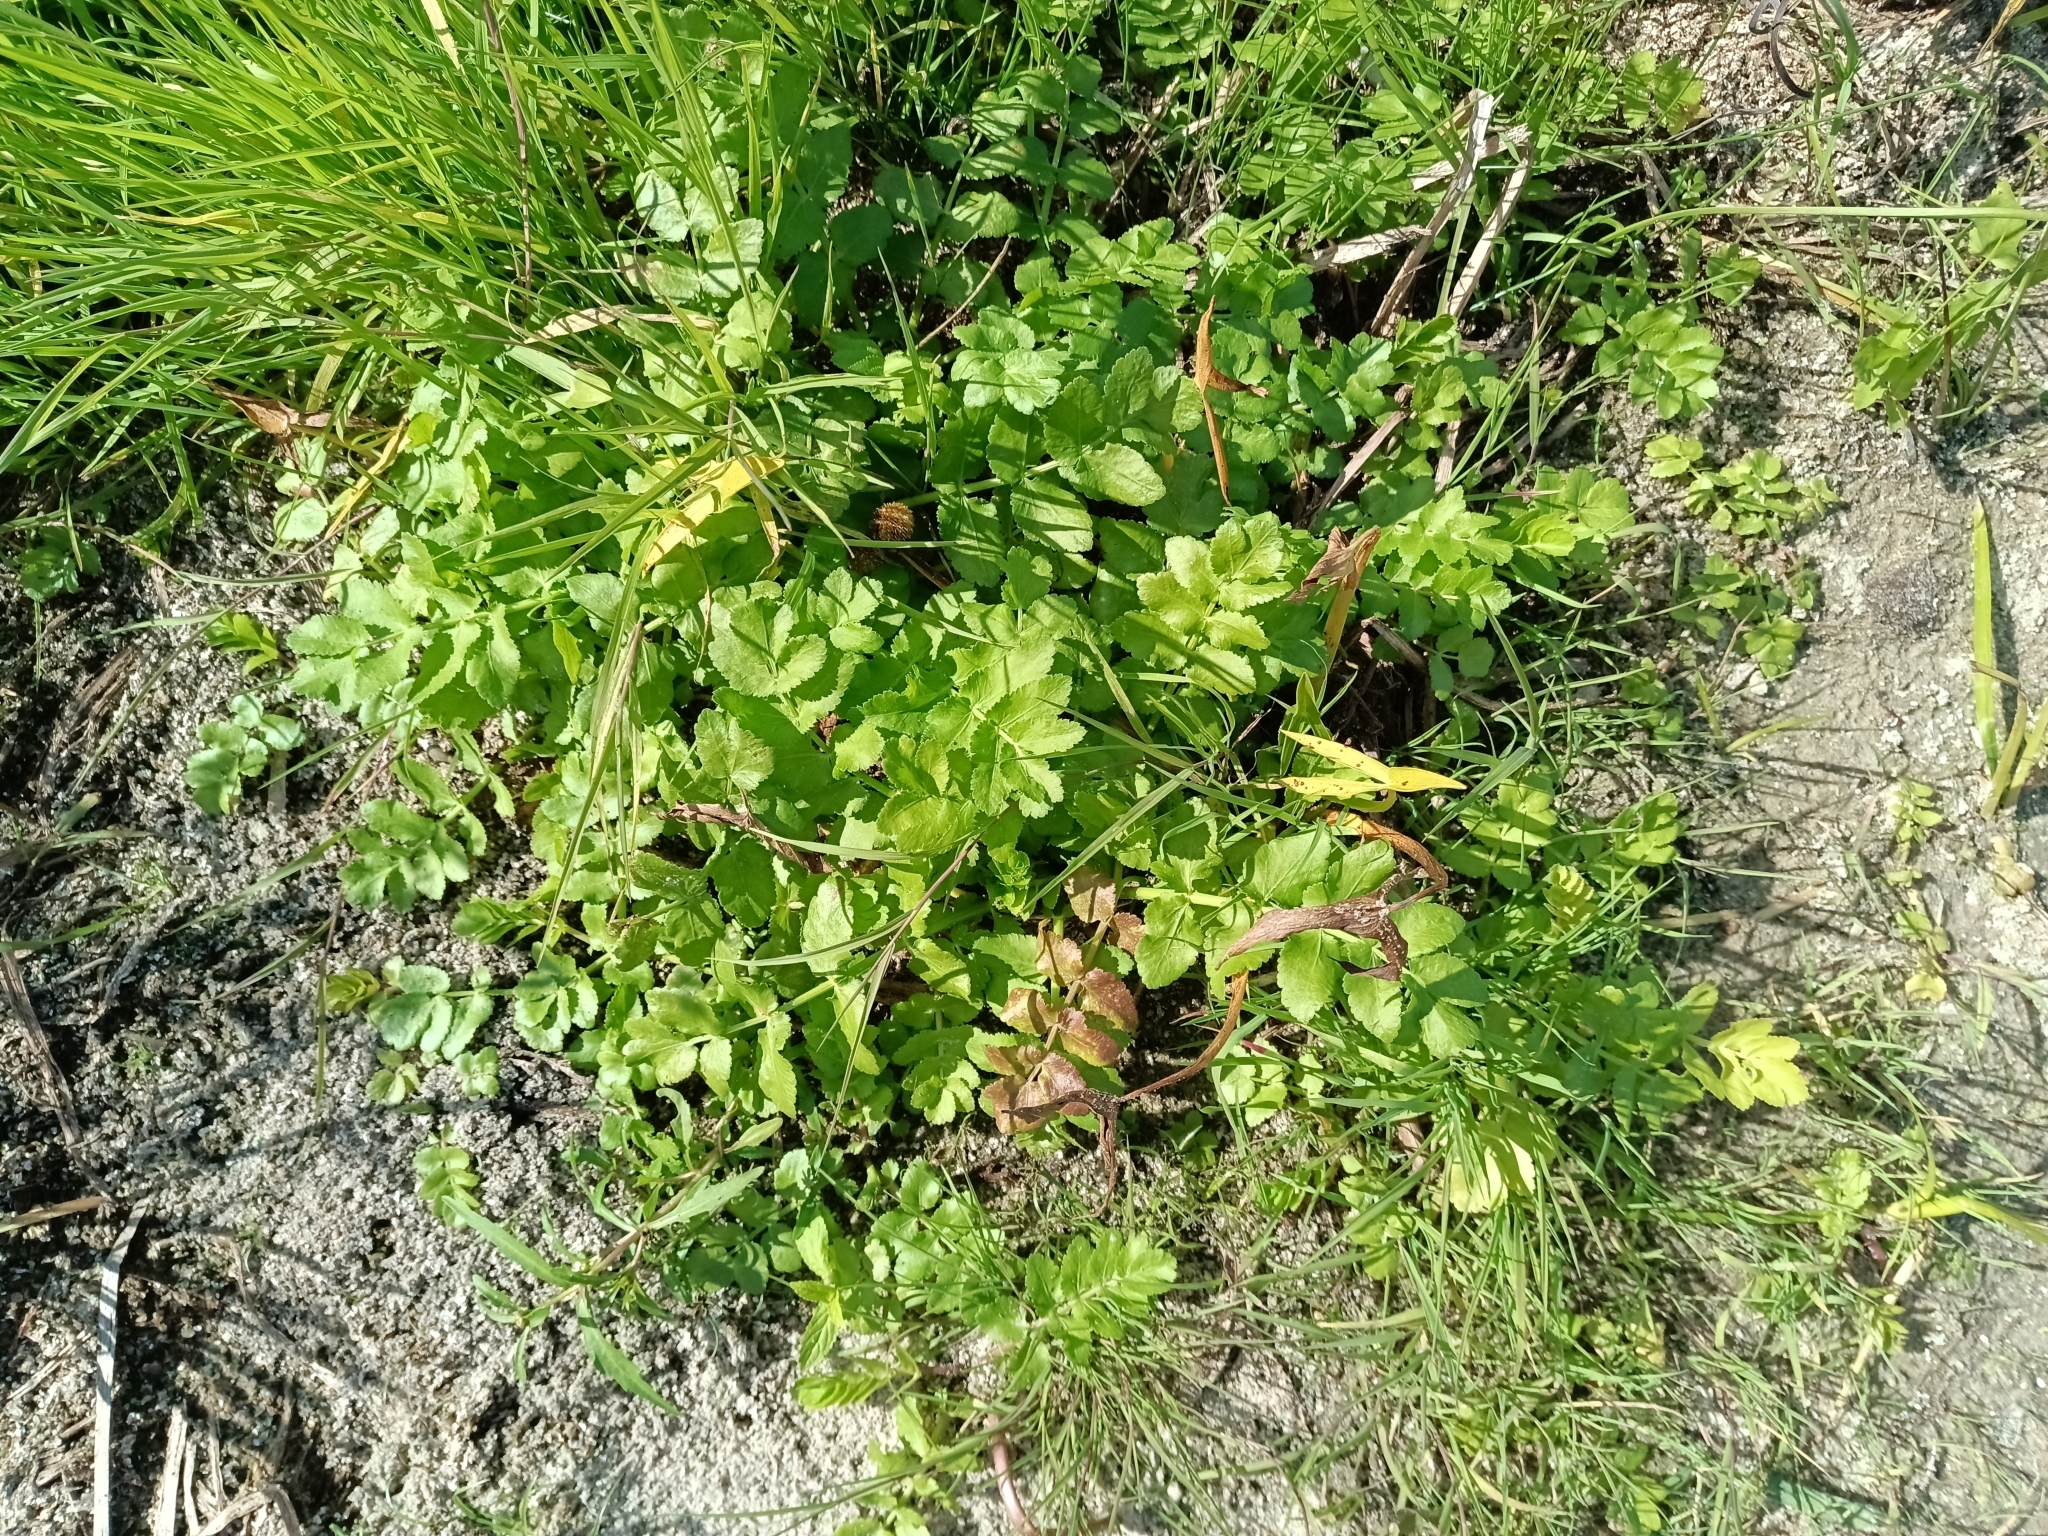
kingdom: Plantae
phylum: Tracheophyta
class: Magnoliopsida
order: Apiales
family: Apiaceae
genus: Berula
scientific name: Berula erecta
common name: Lesser water-parsnip
